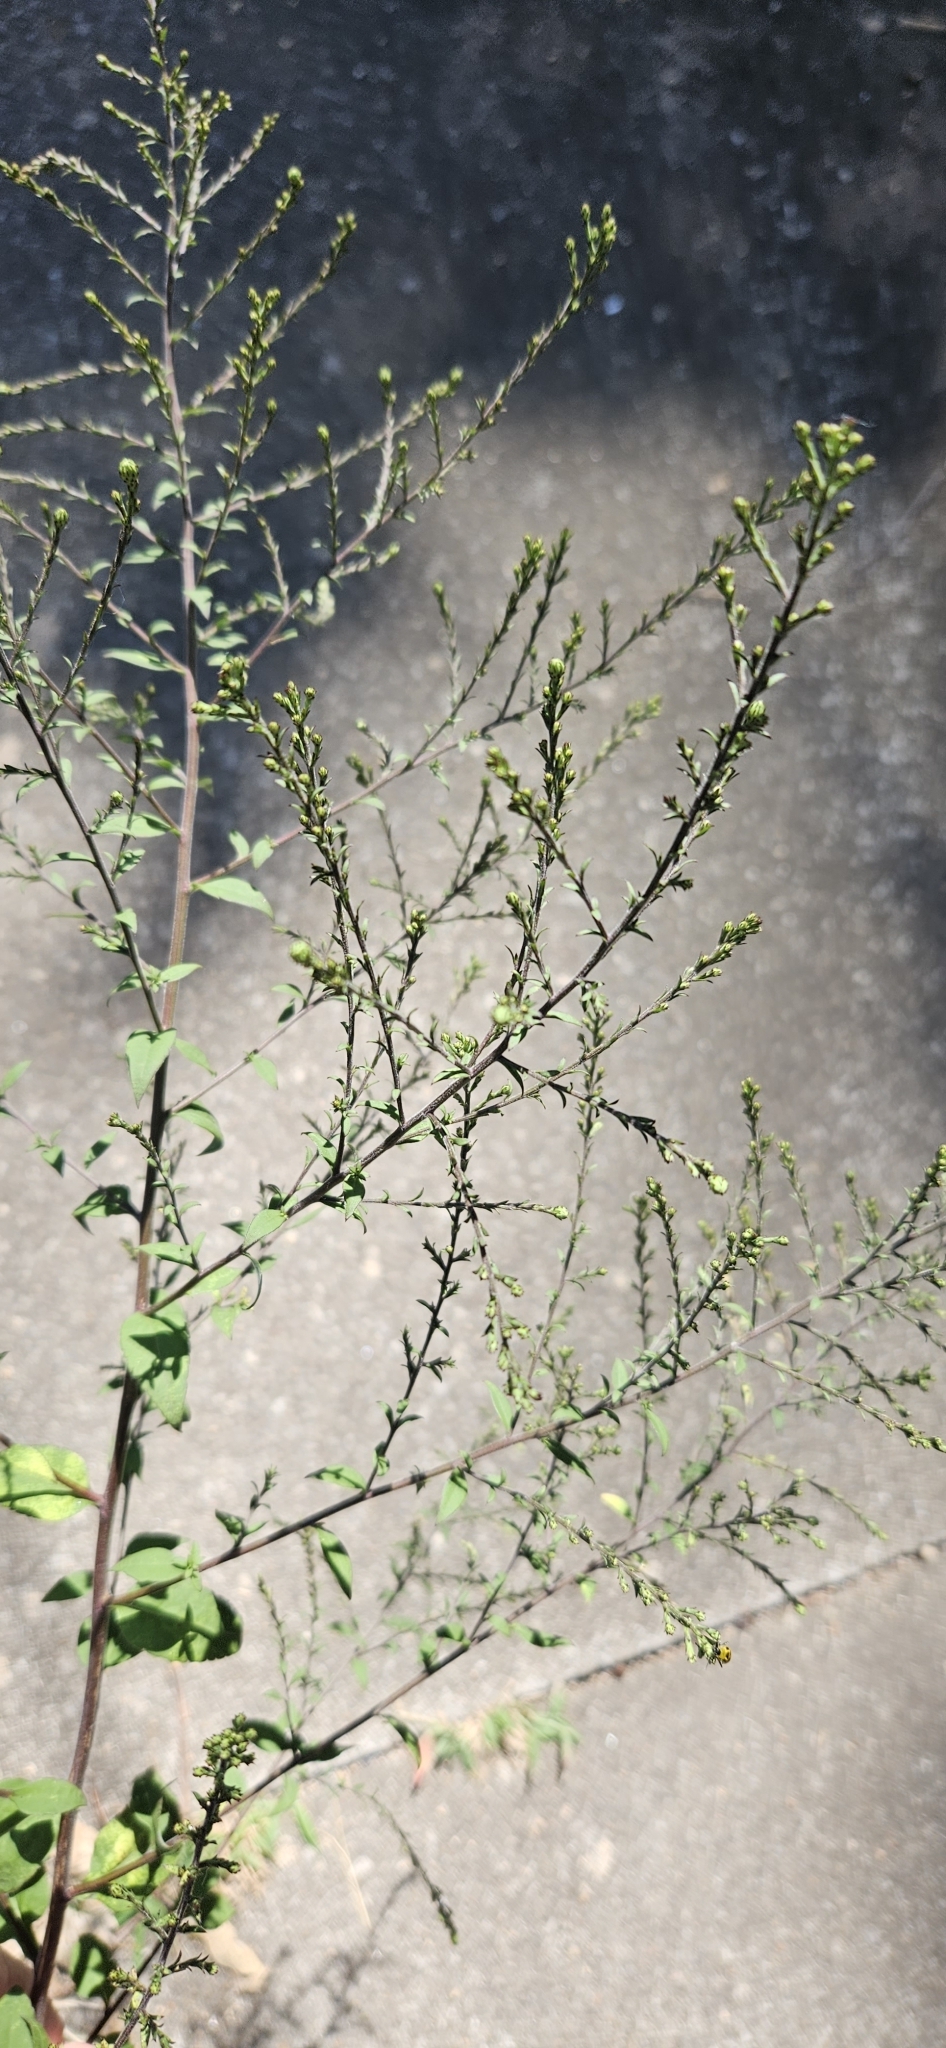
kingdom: Plantae
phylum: Tracheophyta
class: Magnoliopsida
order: Lamiales
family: Verbenaceae
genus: Verbena
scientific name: Verbena urticifolia
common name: Nettle-leaved vervain
